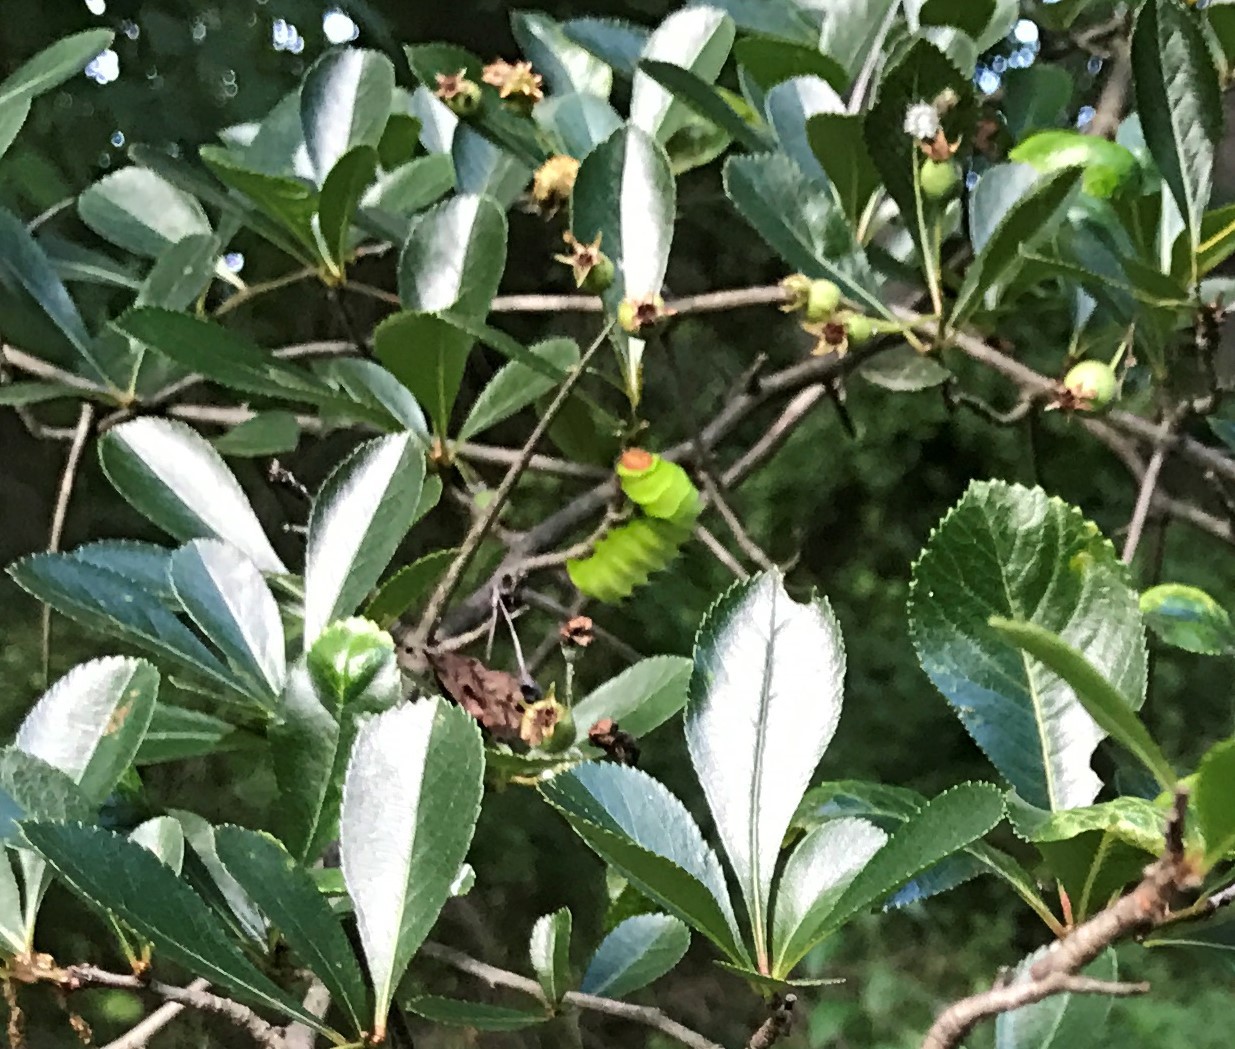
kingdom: Animalia
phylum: Arthropoda
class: Insecta
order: Lepidoptera
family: Saturniidae
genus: Antheraea
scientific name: Antheraea polyphemus
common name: Polyphemus moth
